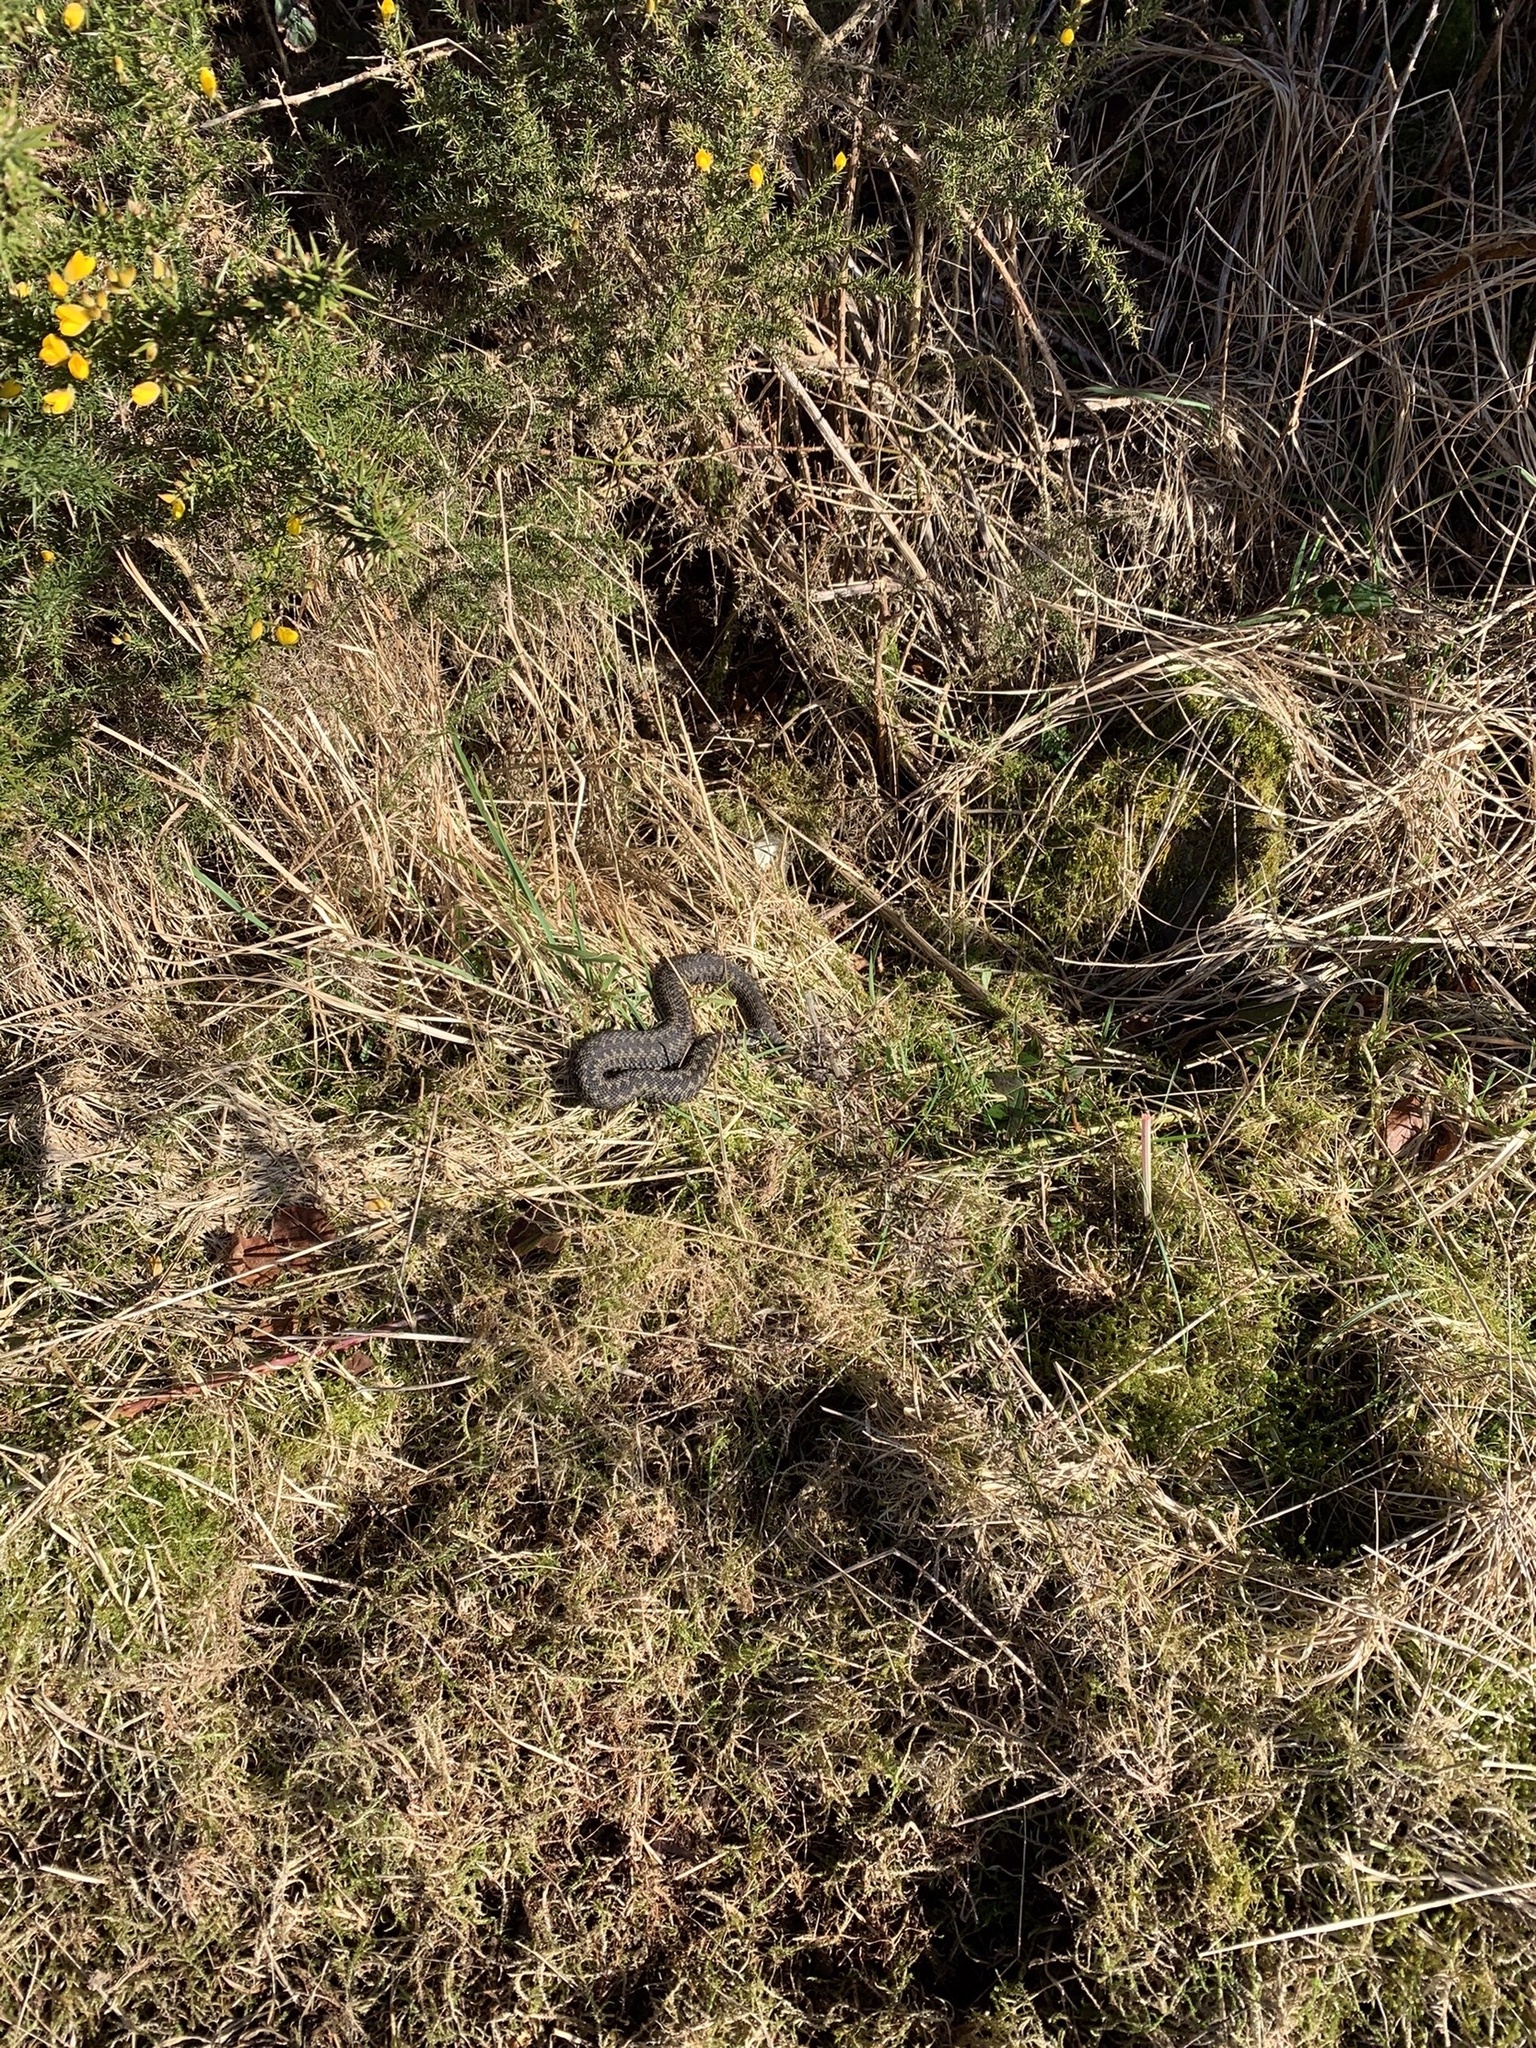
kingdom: Animalia
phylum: Chordata
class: Squamata
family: Viperidae
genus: Vipera
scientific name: Vipera berus
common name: Adder
